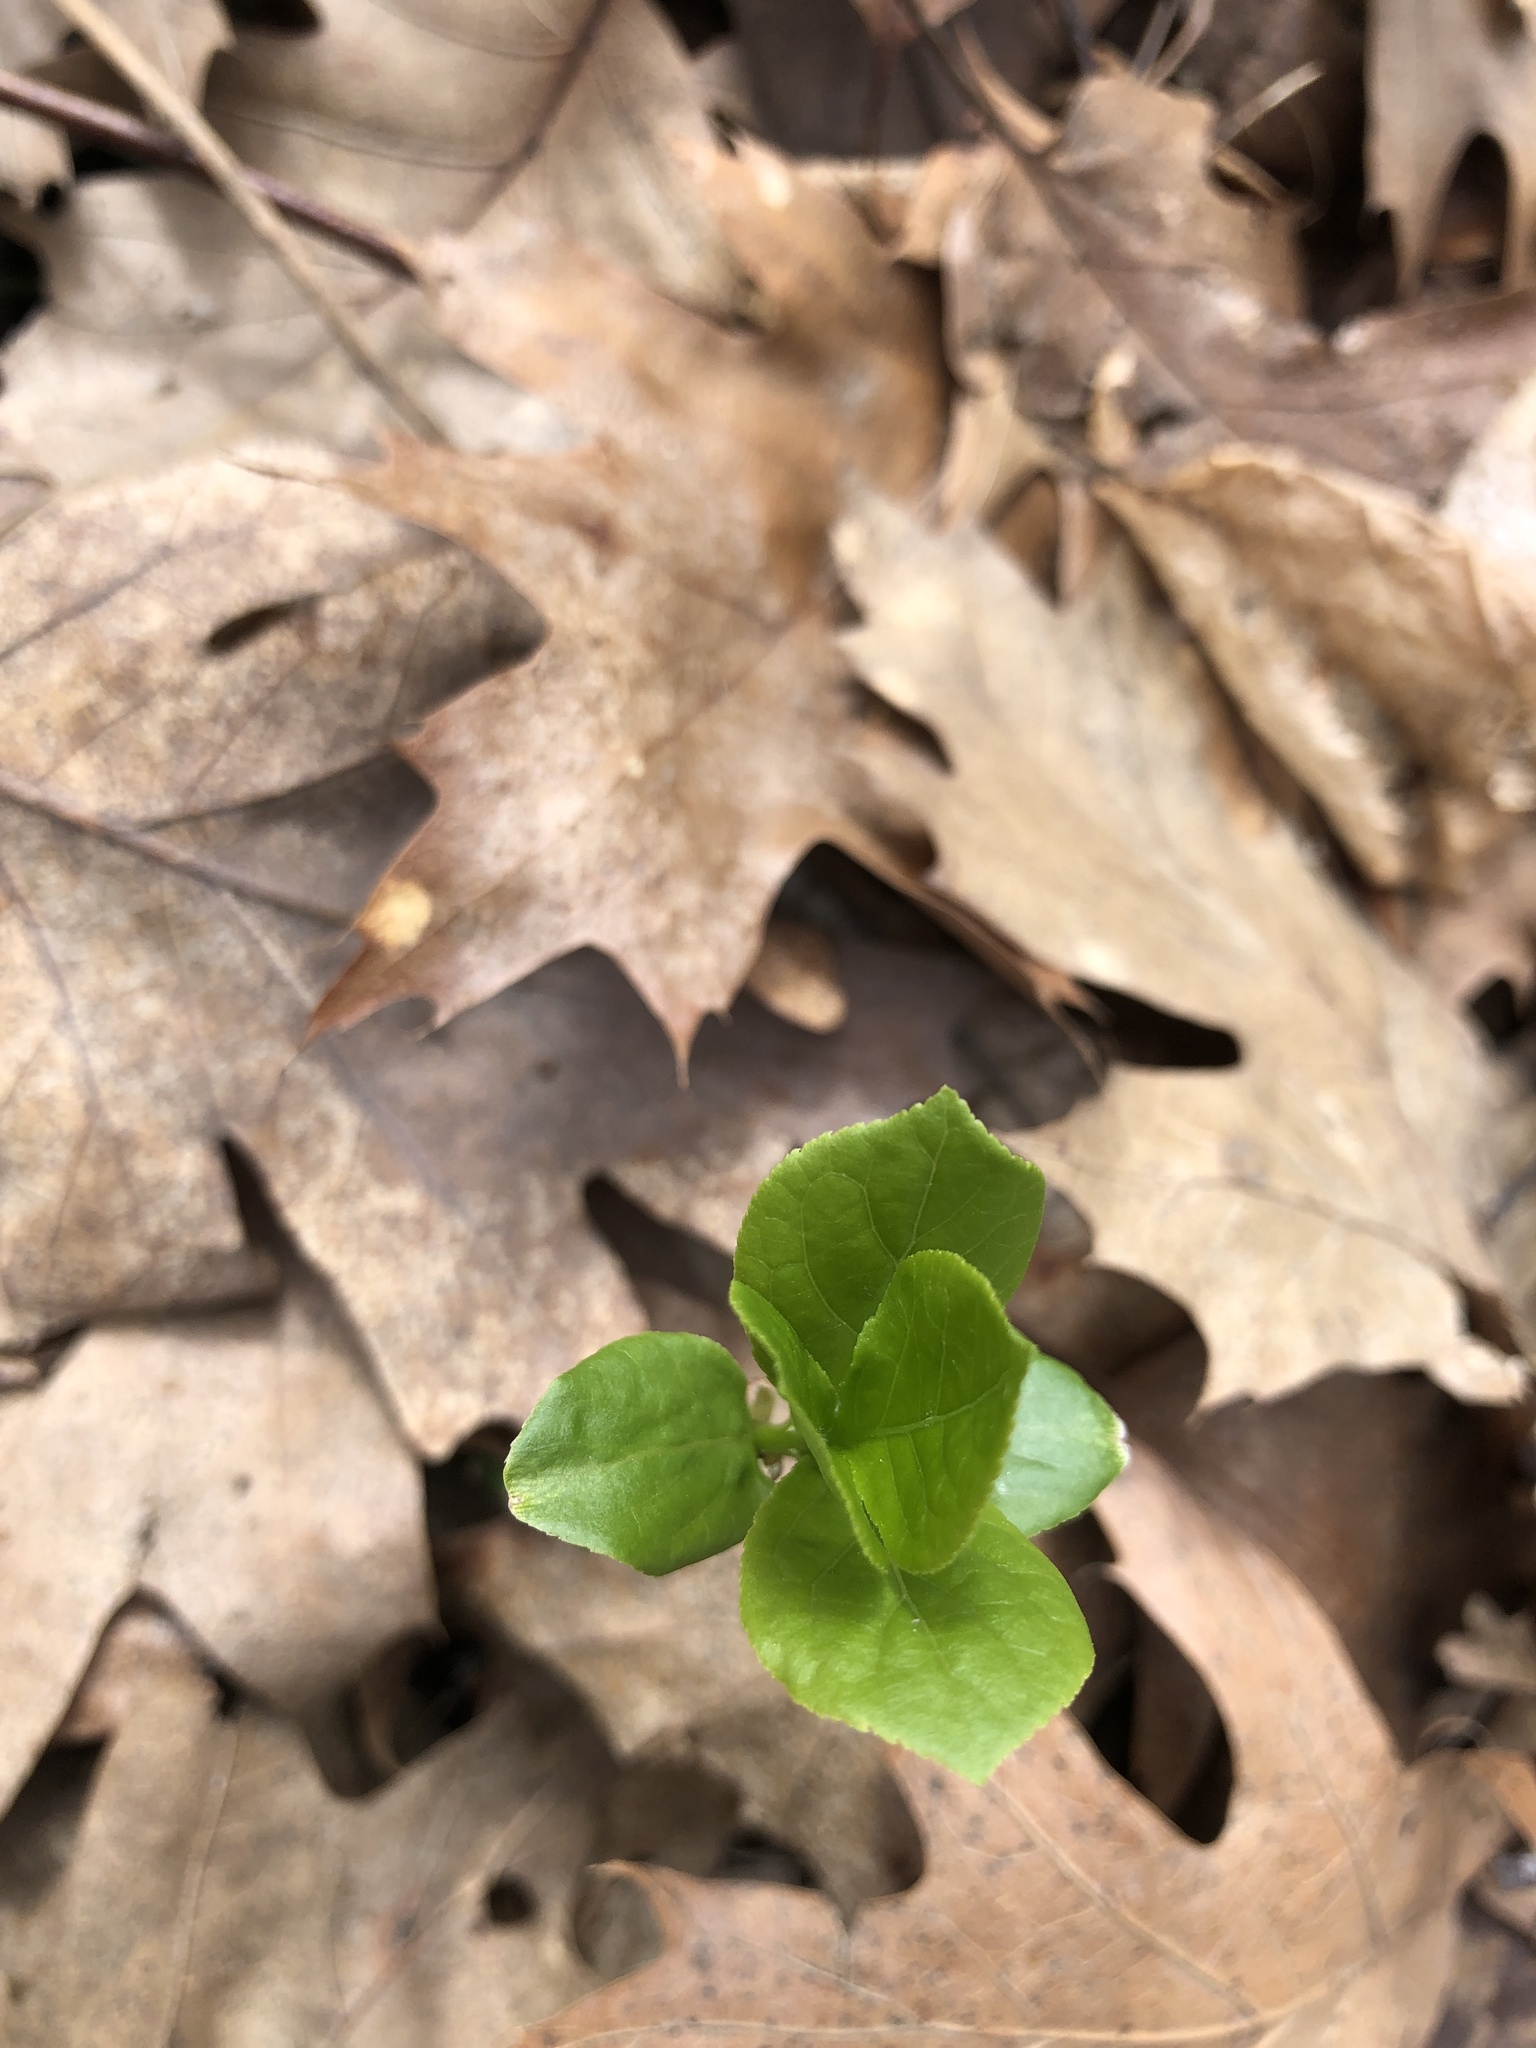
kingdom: Plantae
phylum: Tracheophyta
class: Magnoliopsida
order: Celastrales
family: Celastraceae
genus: Euonymus
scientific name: Euonymus obovatus
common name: Running strawberry-bush
